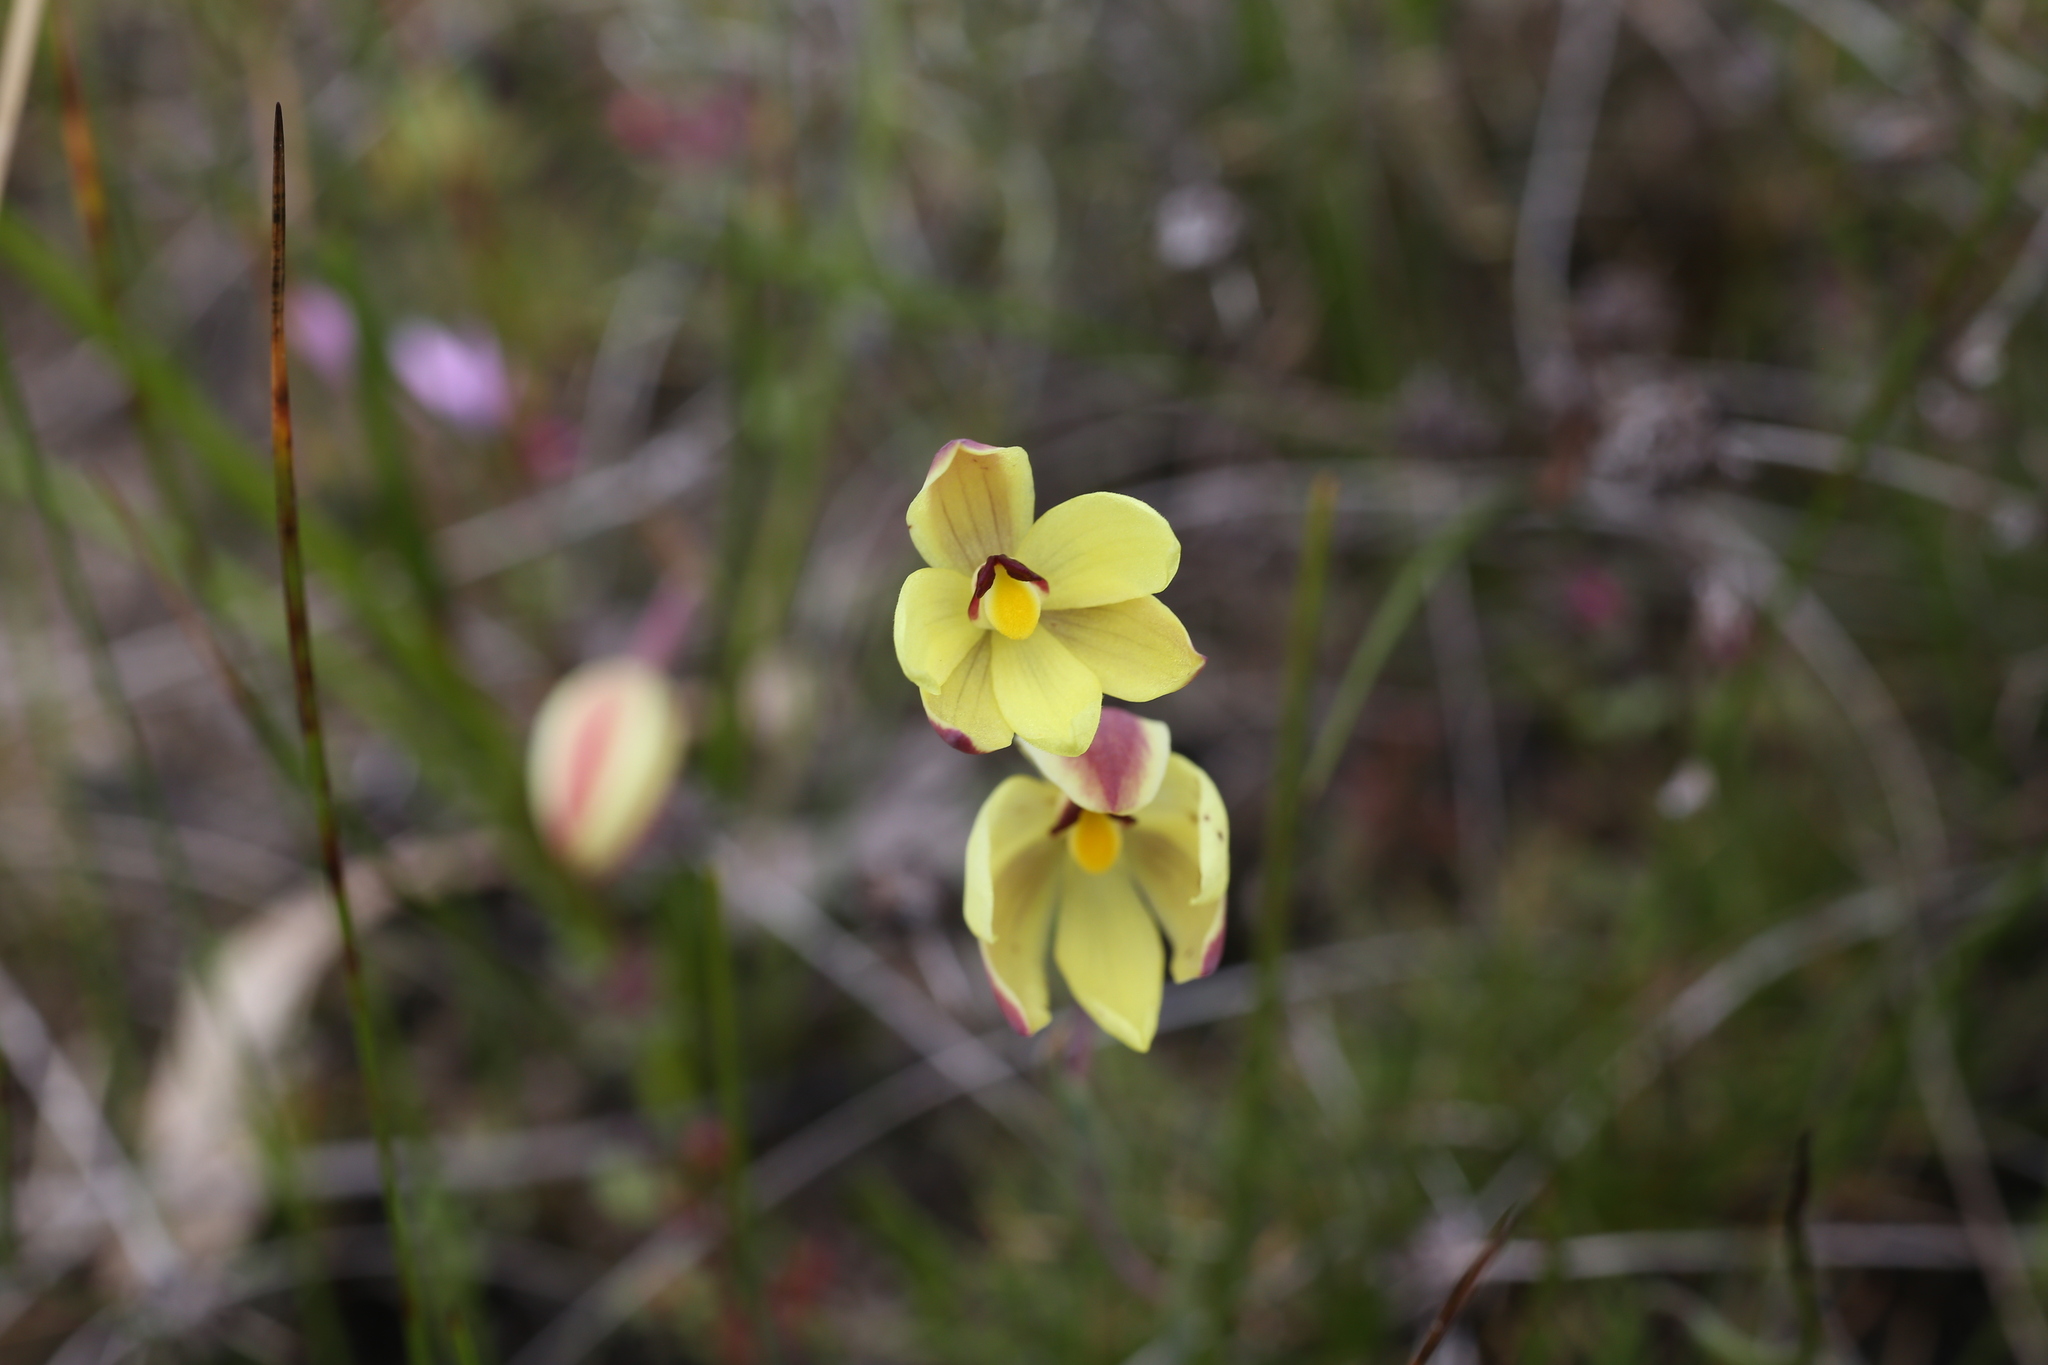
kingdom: Plantae
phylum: Tracheophyta
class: Liliopsida
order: Asparagales
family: Orchidaceae
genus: Thelymitra
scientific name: Thelymitra antennifera
